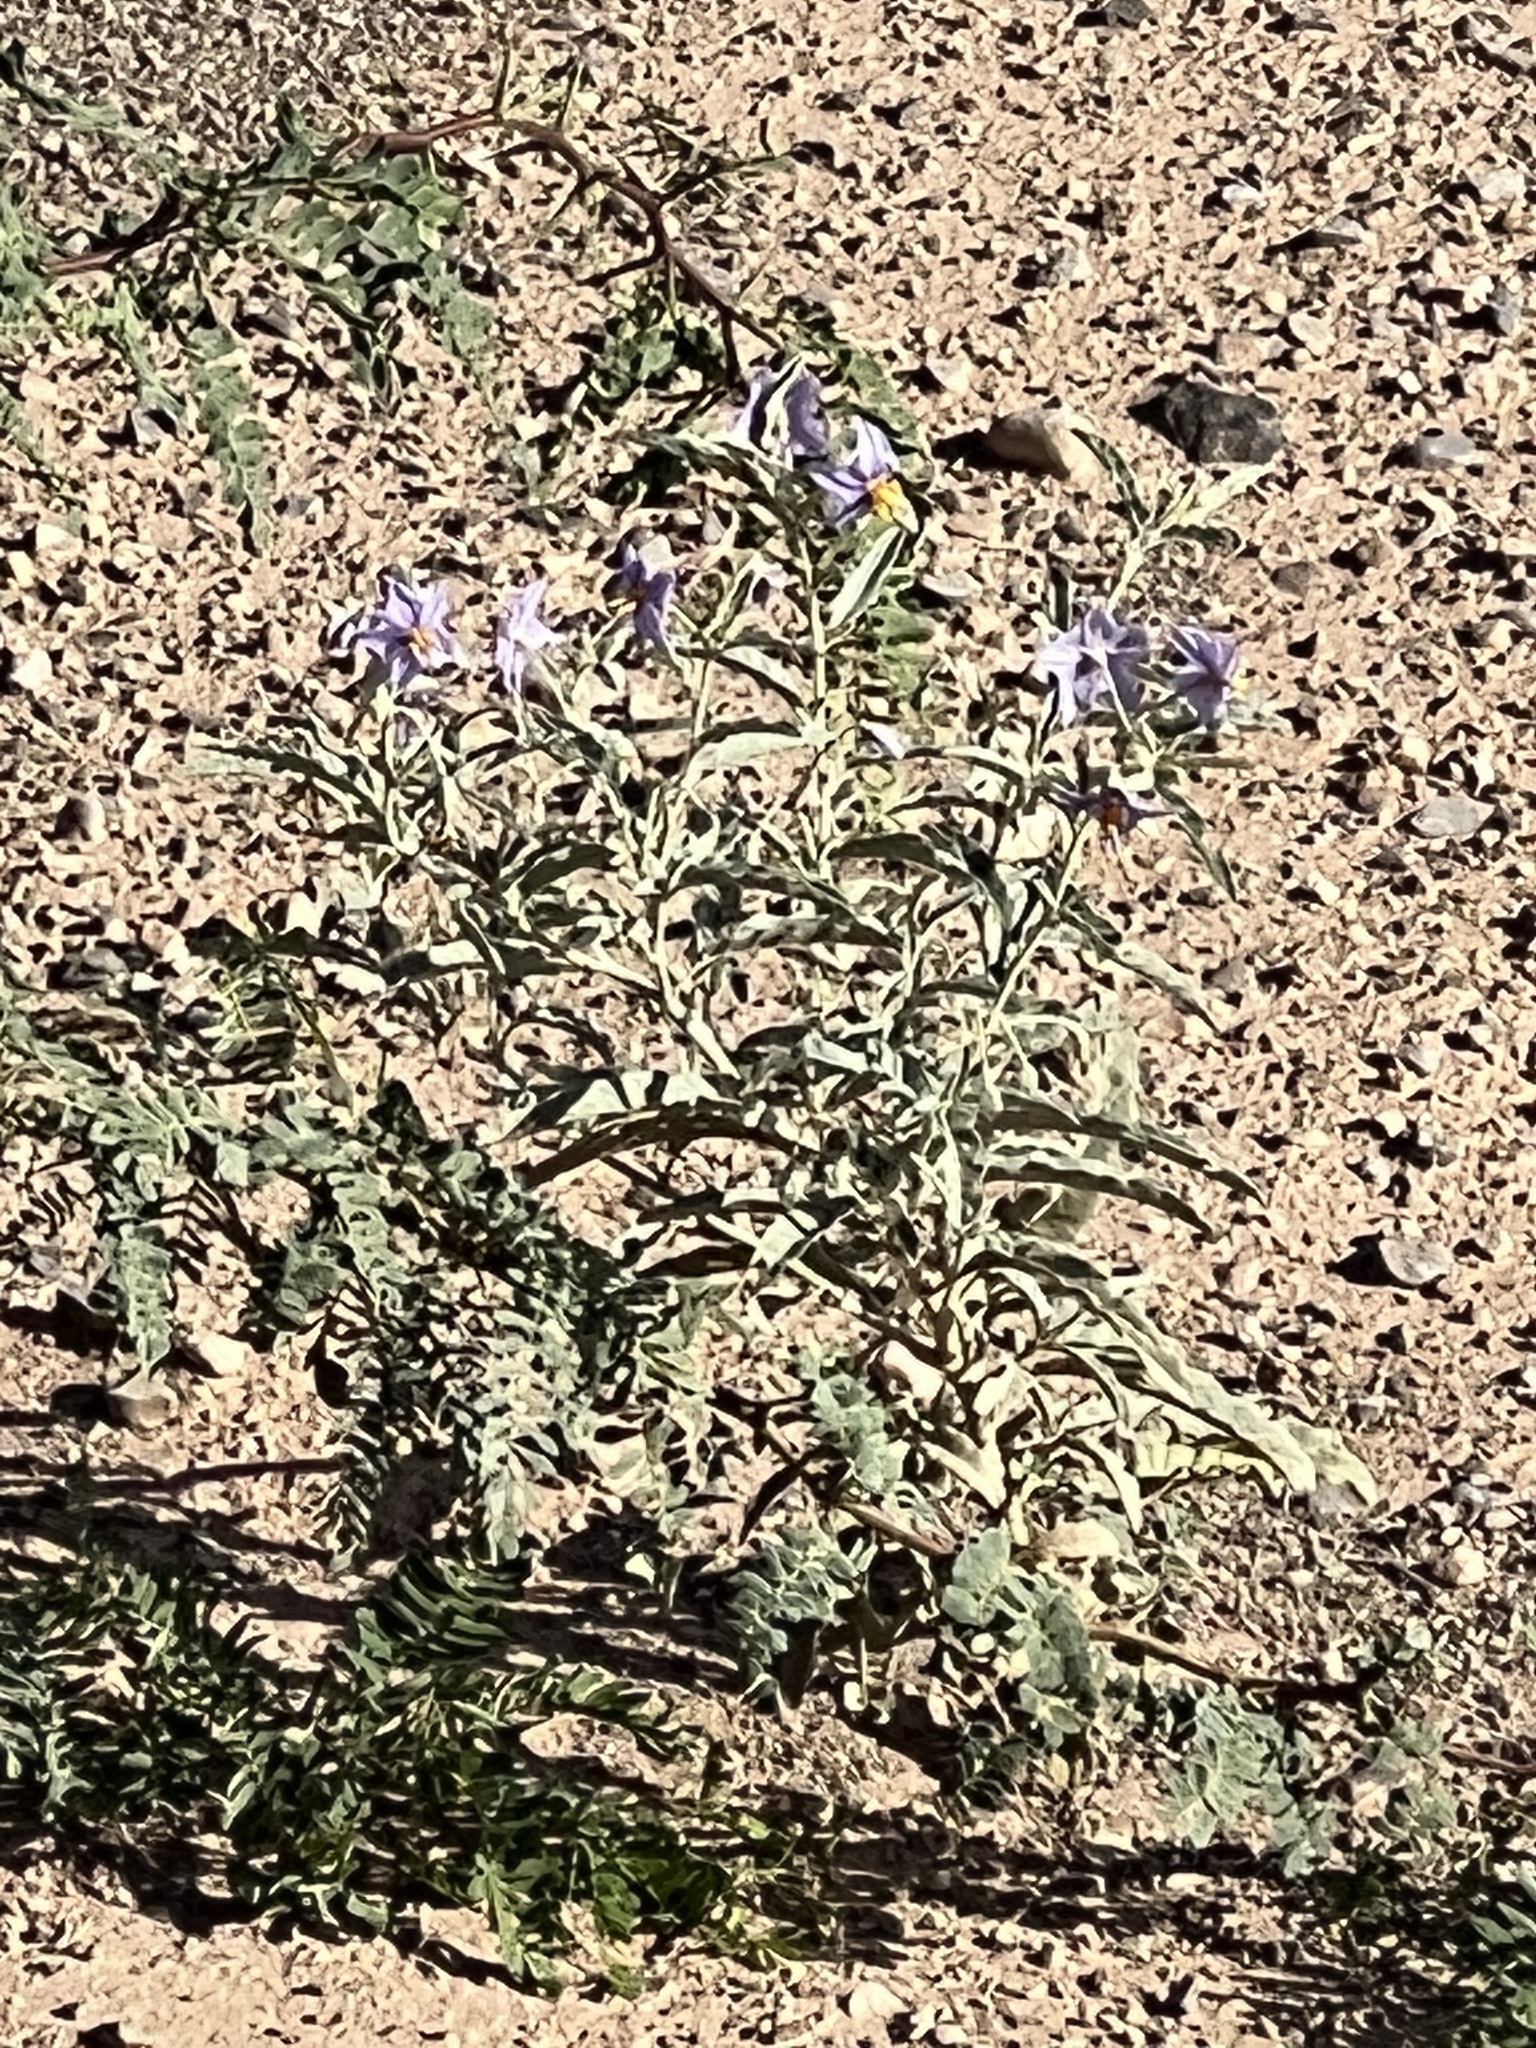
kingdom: Plantae
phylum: Tracheophyta
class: Magnoliopsida
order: Solanales
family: Solanaceae
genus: Solanum
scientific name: Solanum elaeagnifolium
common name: Silverleaf nightshade
